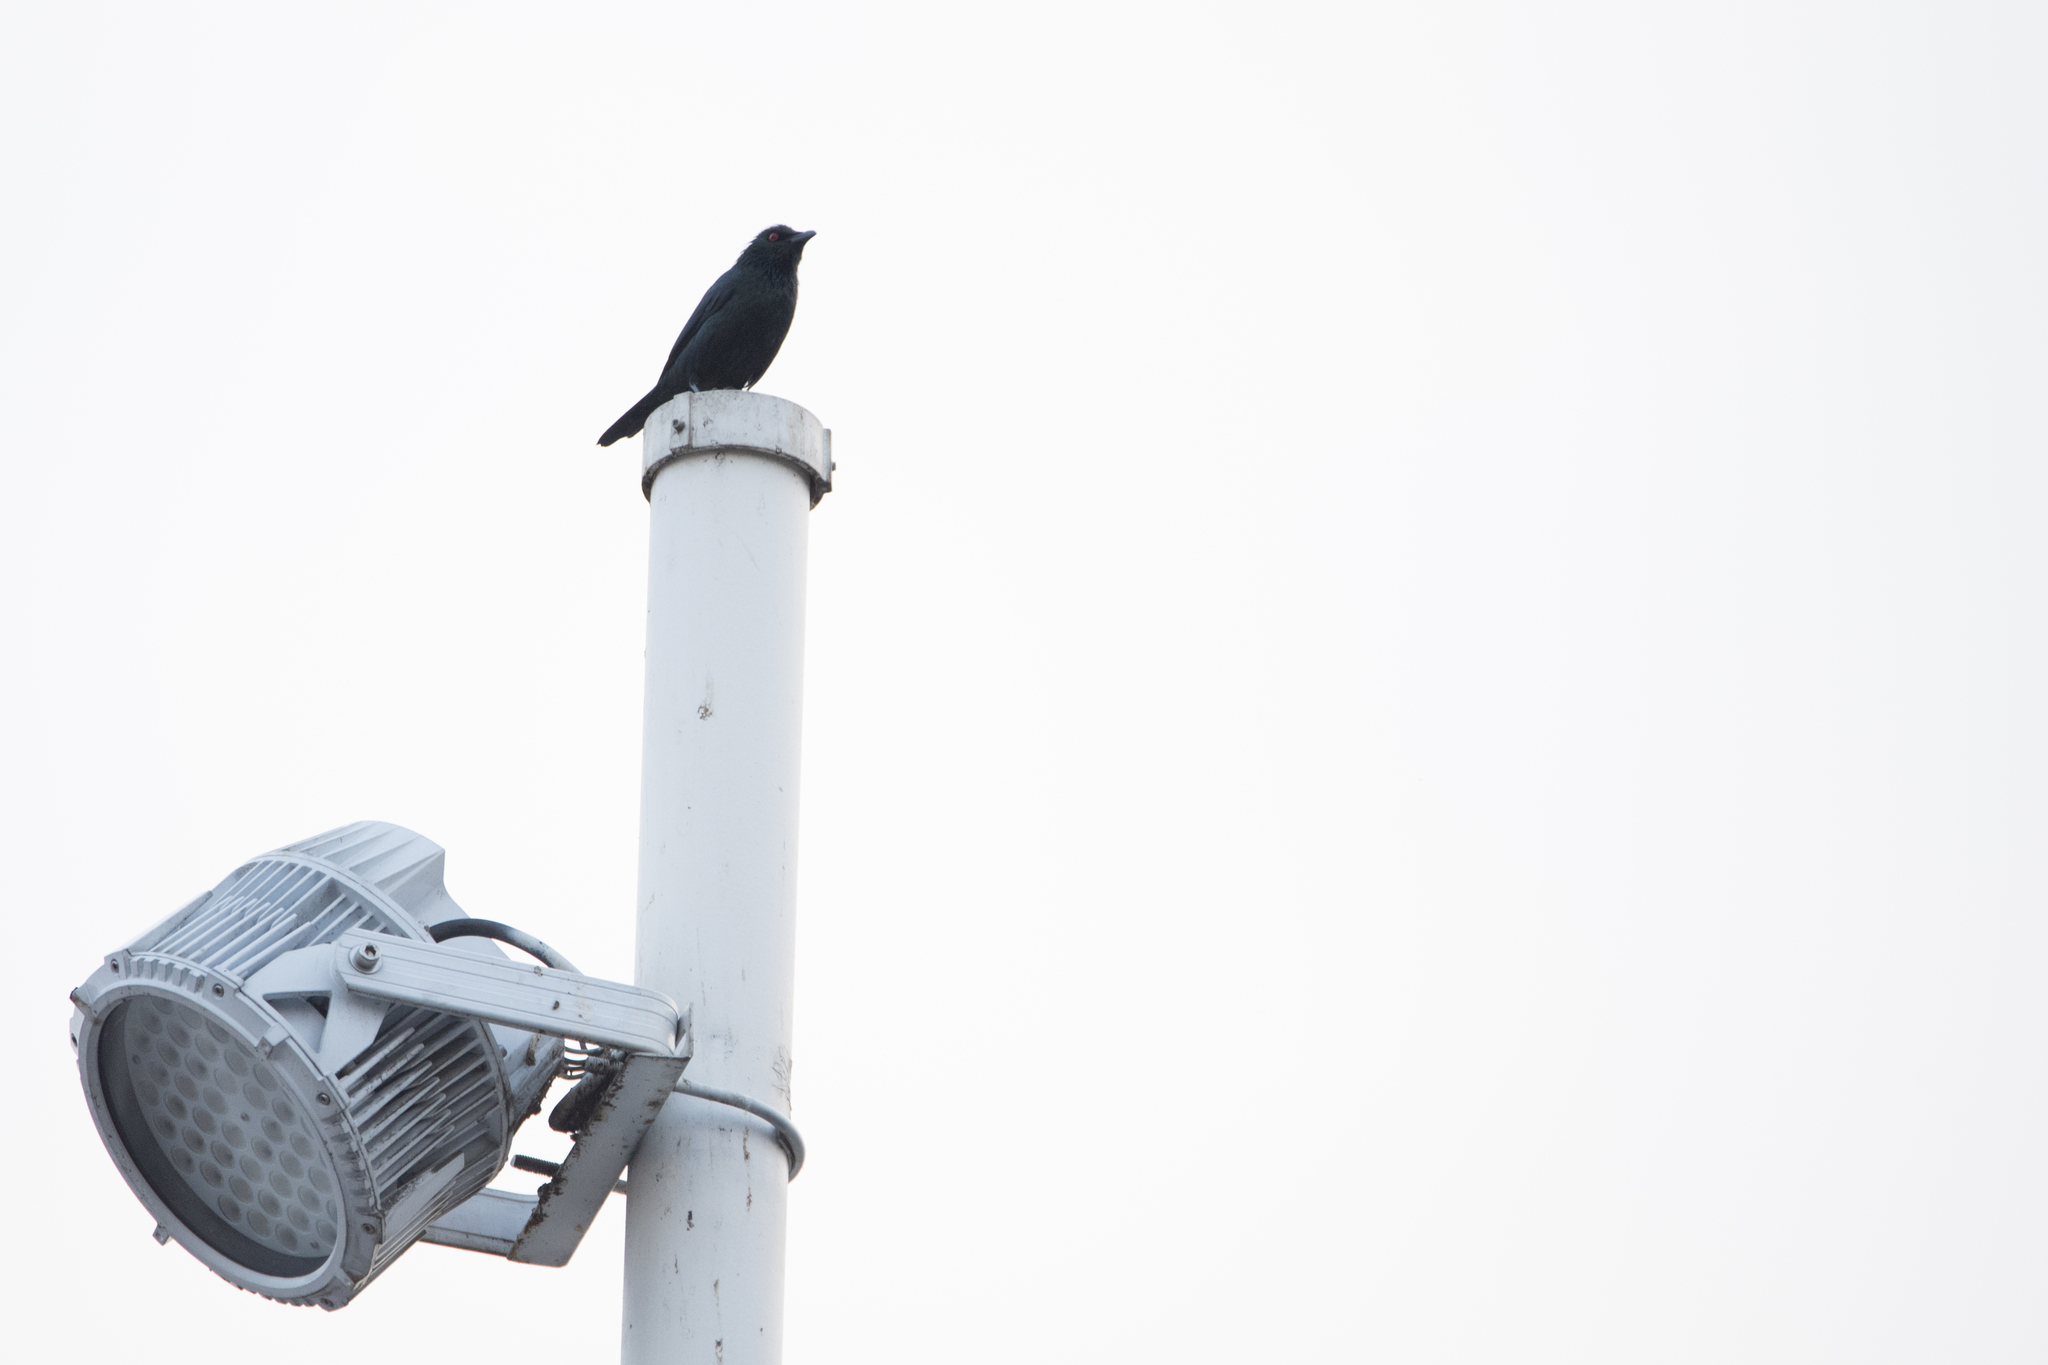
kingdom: Animalia
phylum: Chordata
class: Aves
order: Passeriformes
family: Sturnidae
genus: Aplonis
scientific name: Aplonis panayensis
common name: Asian glossy starling
